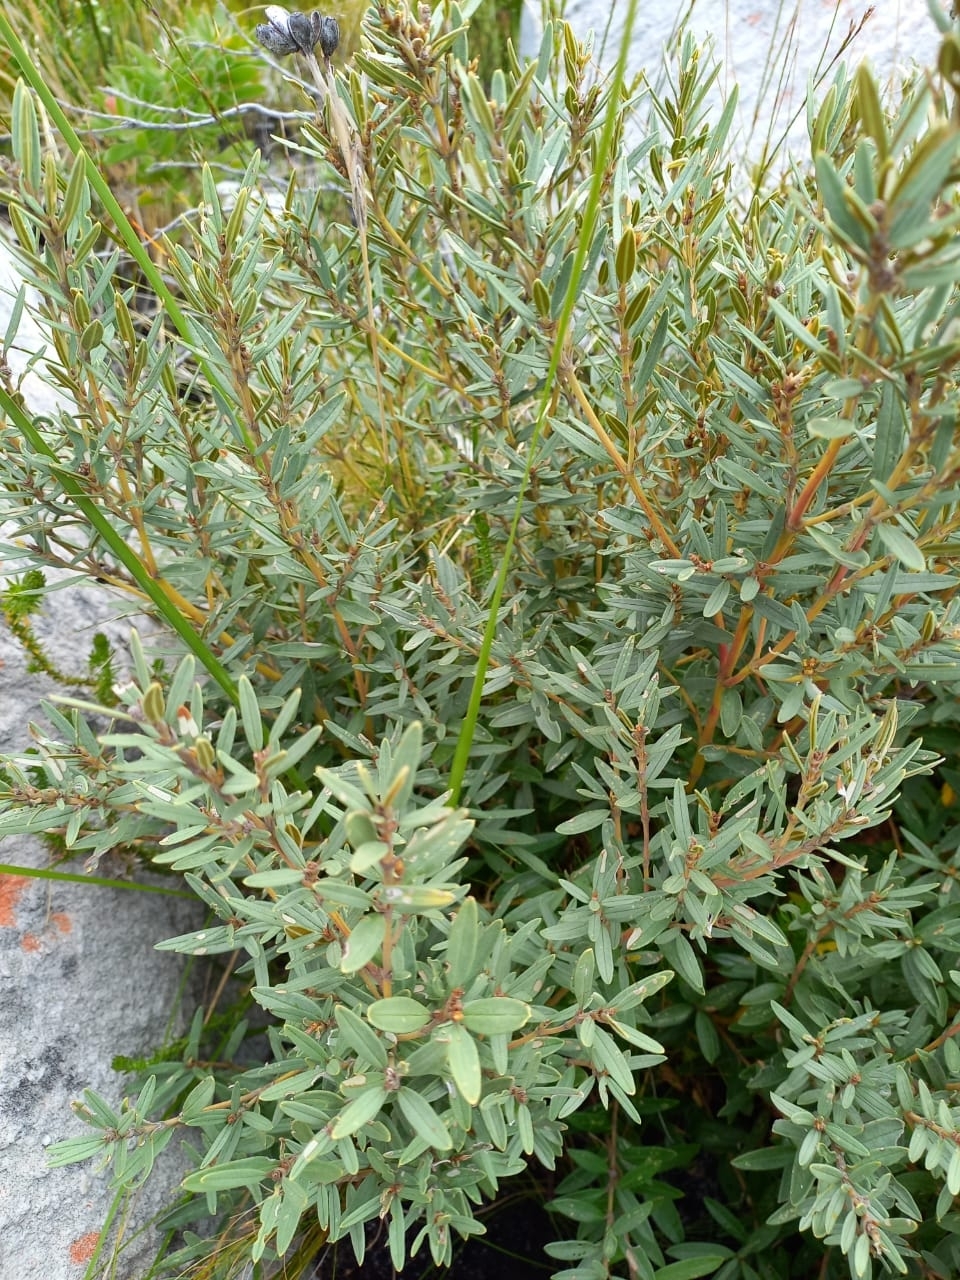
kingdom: Plantae
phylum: Tracheophyta
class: Magnoliopsida
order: Cornales
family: Grubbiaceae
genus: Grubbia
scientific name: Grubbia tomentosa
